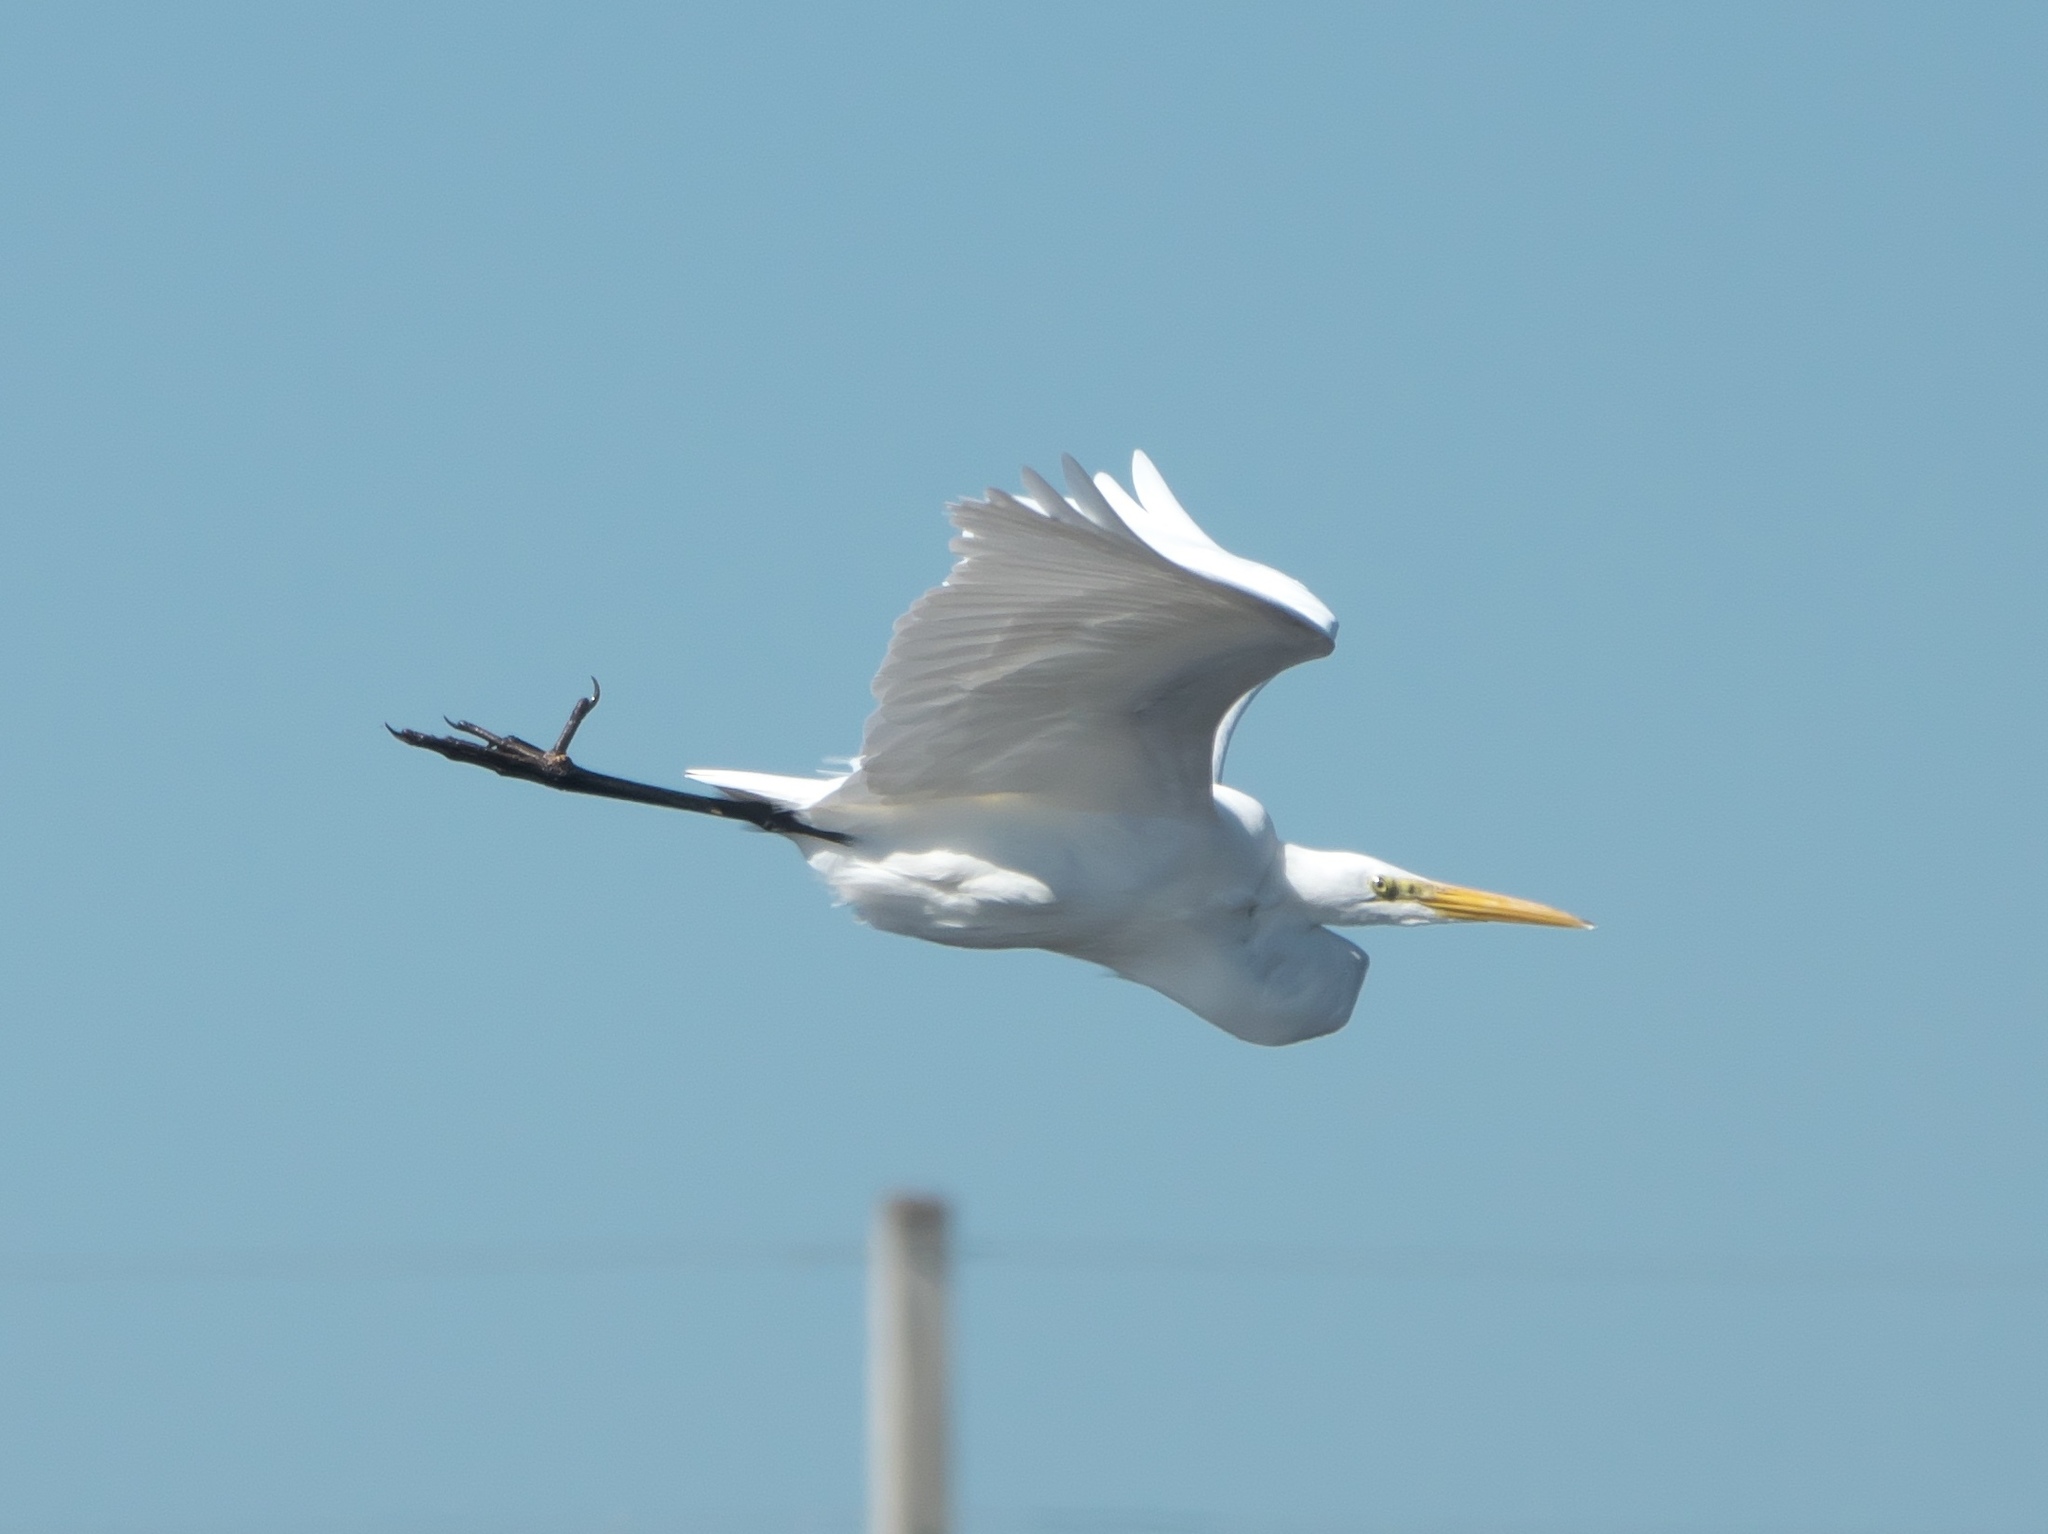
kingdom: Animalia
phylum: Chordata
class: Aves
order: Pelecaniformes
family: Ardeidae
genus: Ardea
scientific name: Ardea alba
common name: Great egret
